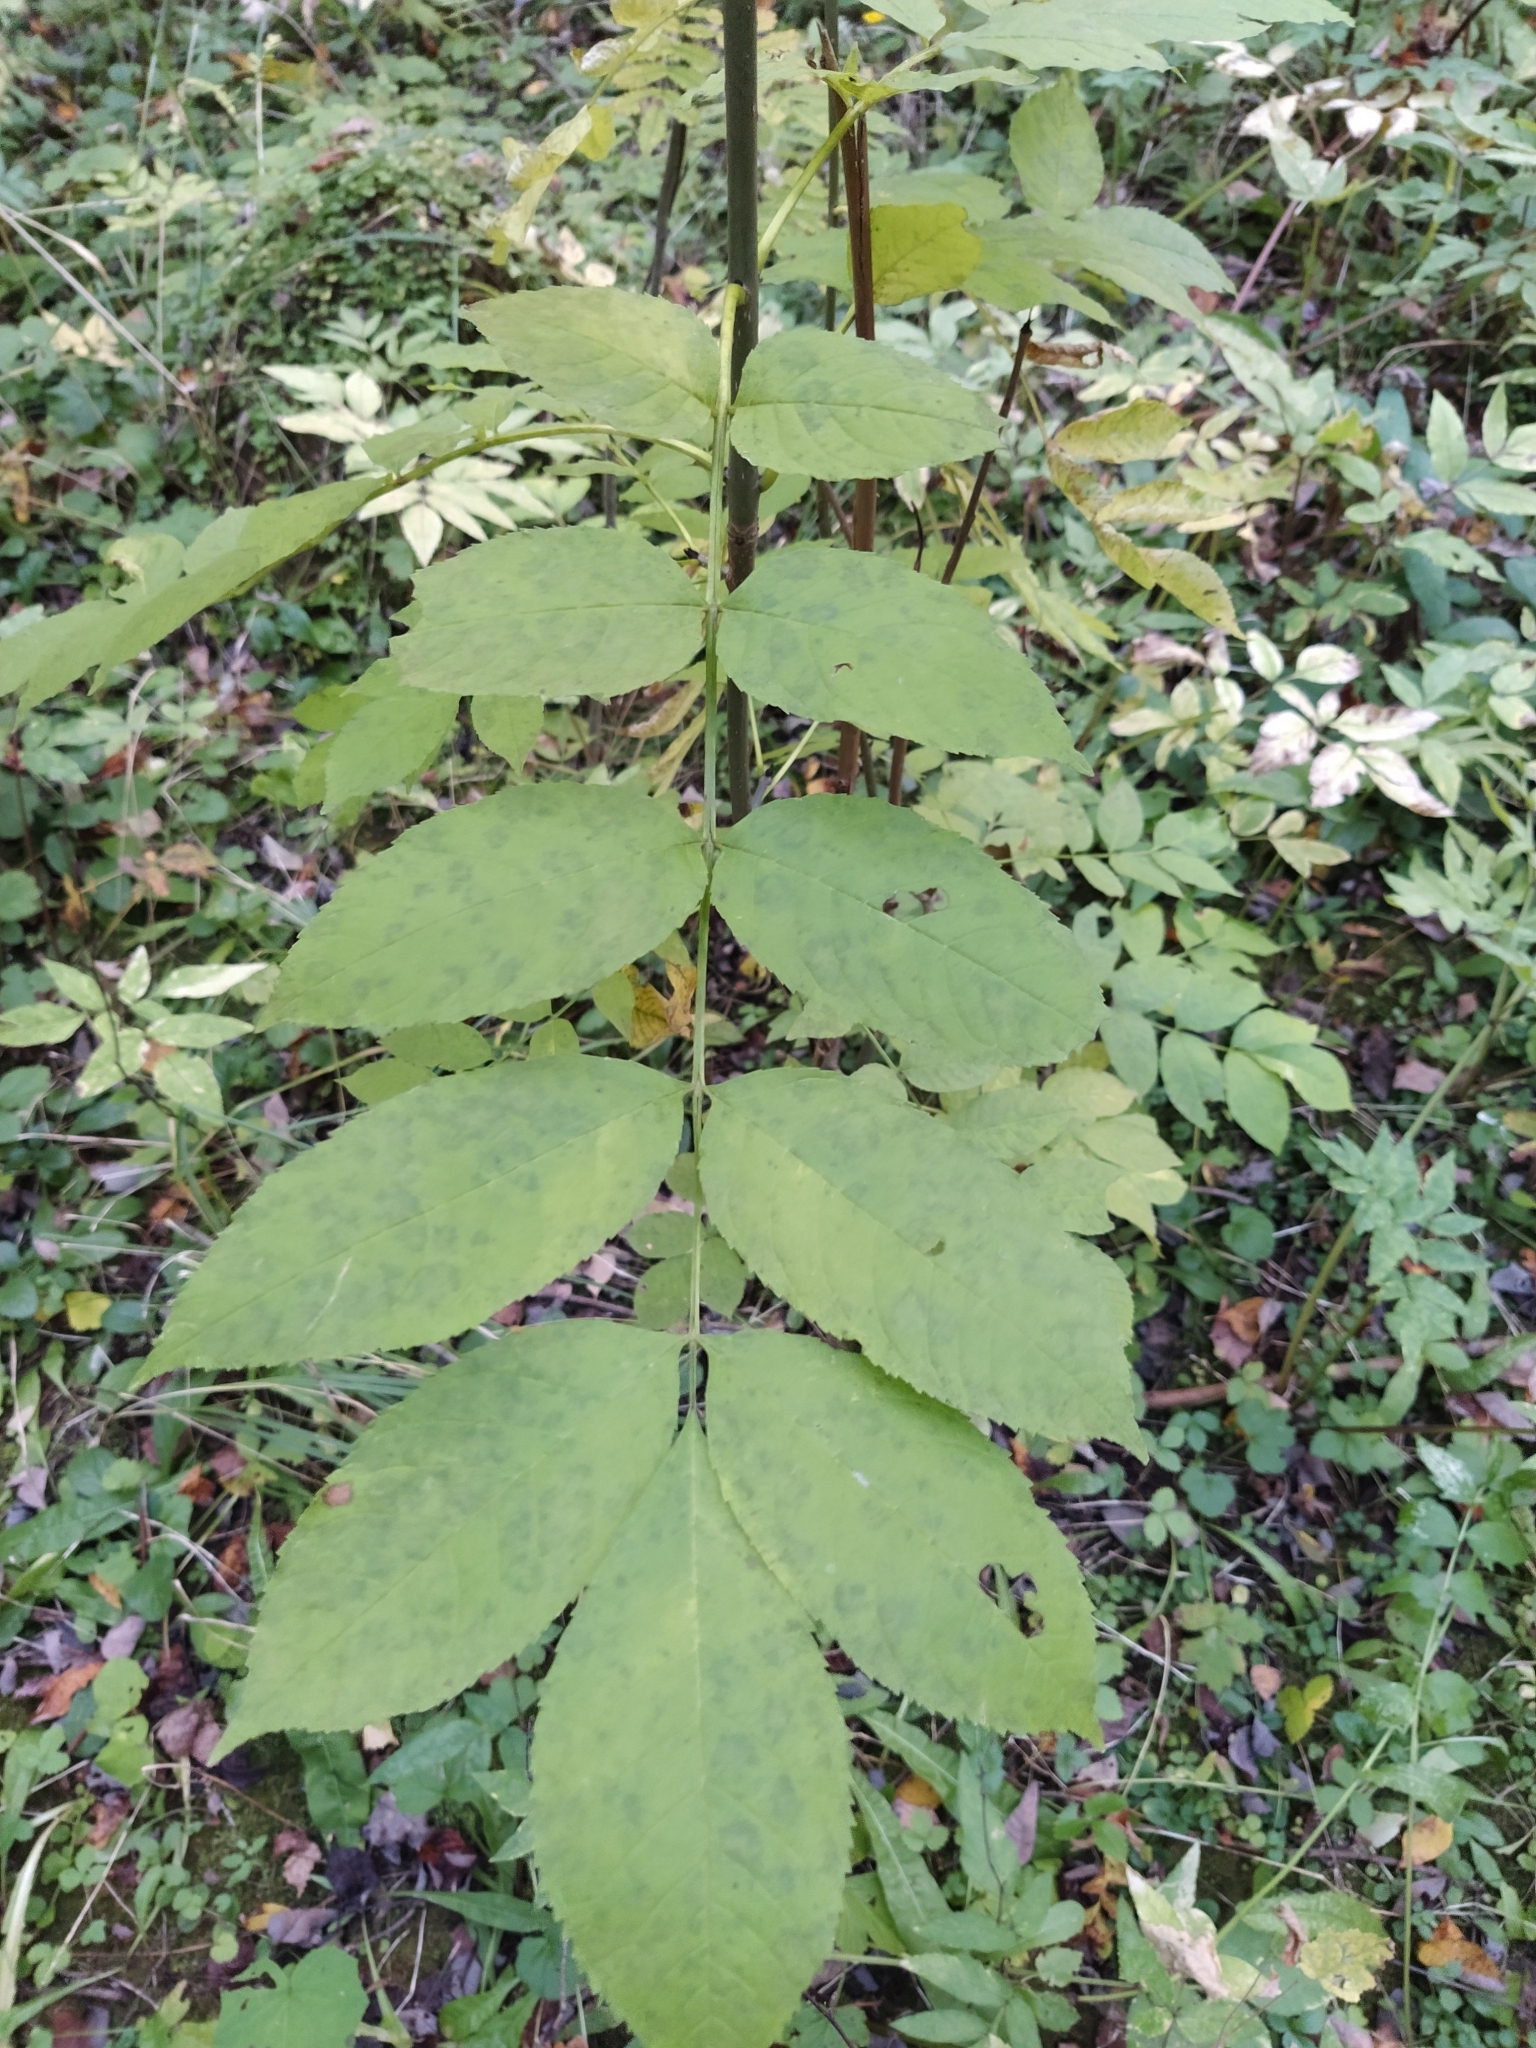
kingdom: Plantae
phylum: Tracheophyta
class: Magnoliopsida
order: Lamiales
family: Oleaceae
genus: Fraxinus
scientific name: Fraxinus excelsior
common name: European ash
